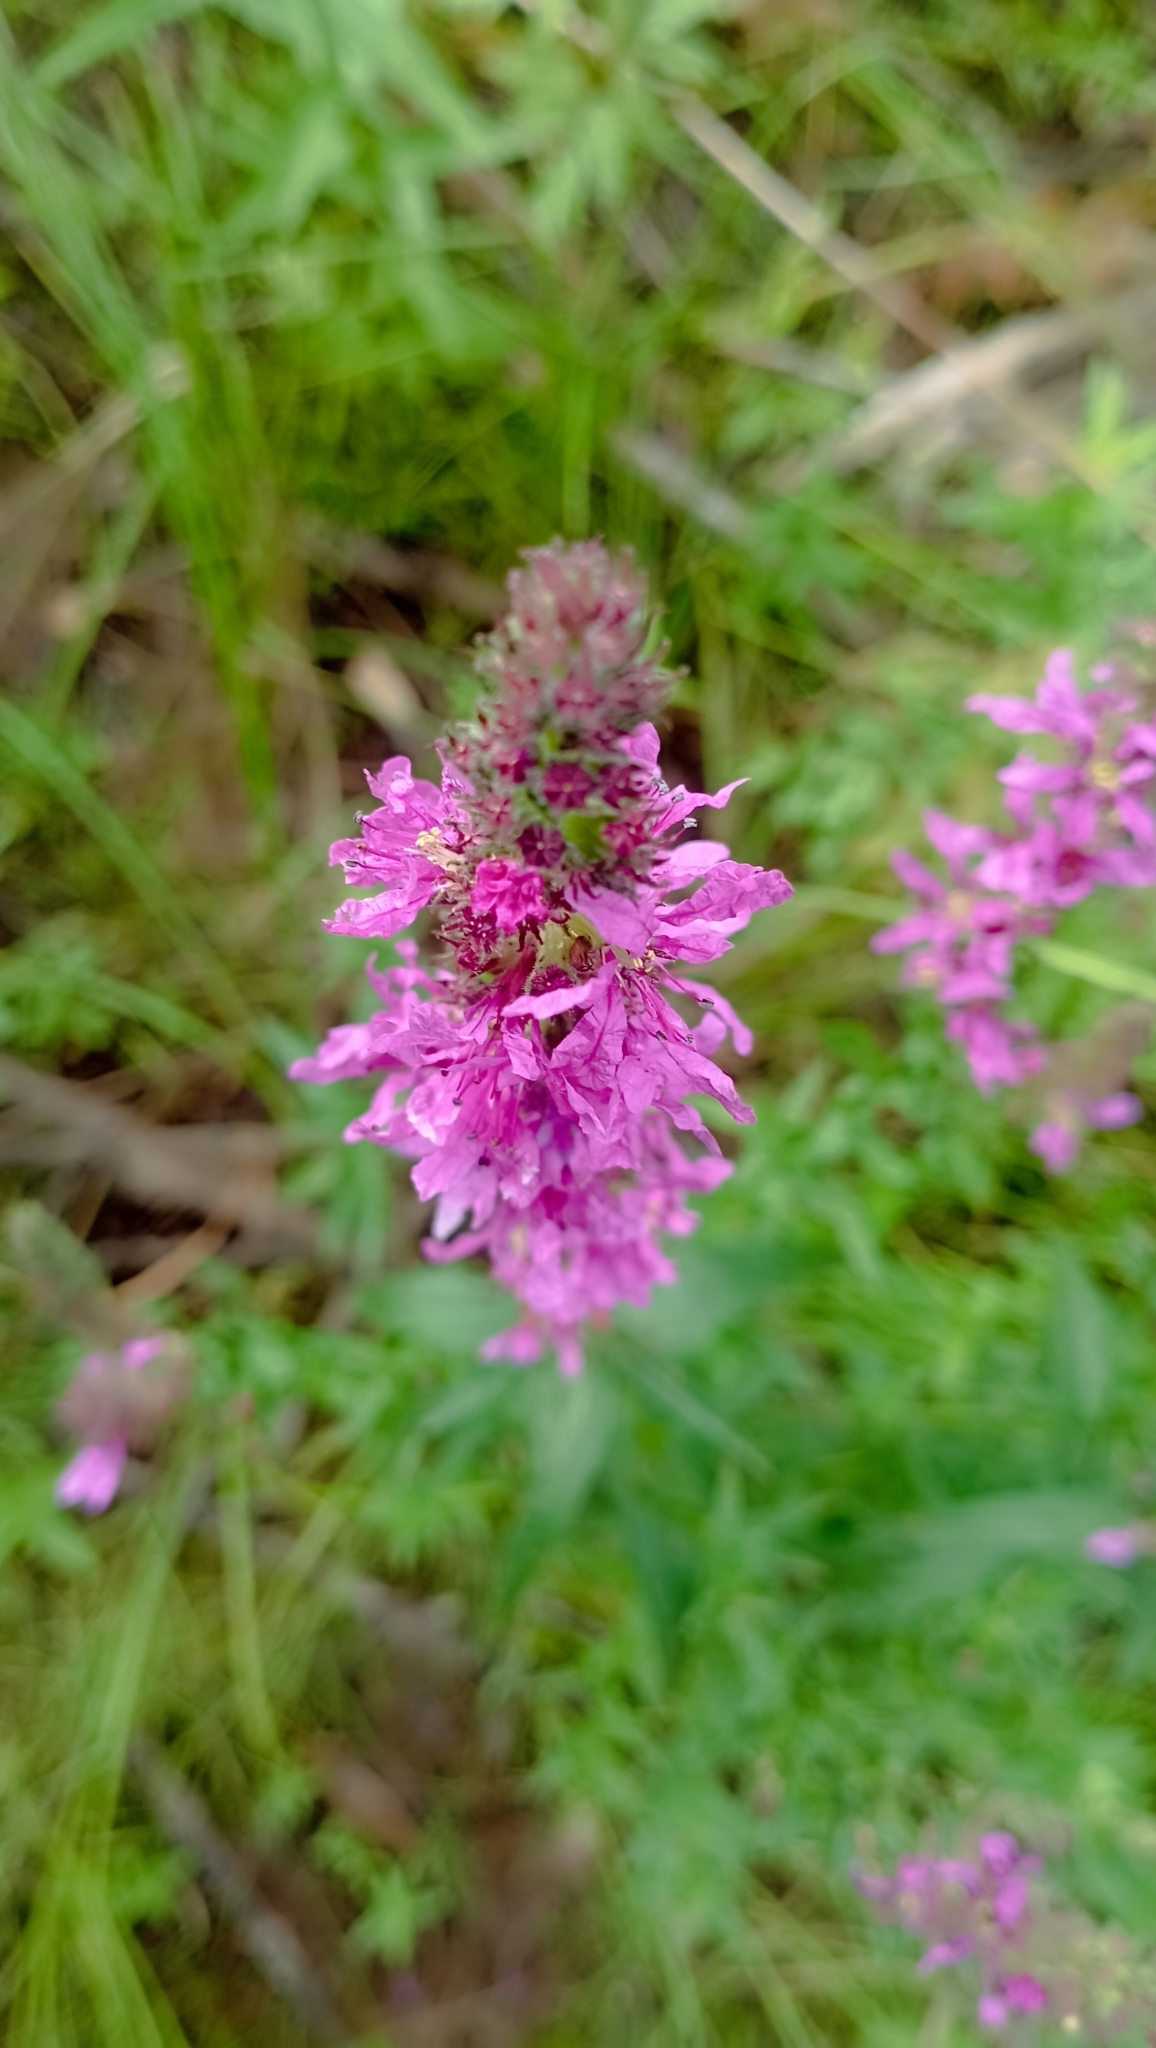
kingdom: Plantae
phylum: Tracheophyta
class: Magnoliopsida
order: Myrtales
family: Lythraceae
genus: Lythrum
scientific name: Lythrum salicaria
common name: Purple loosestrife
